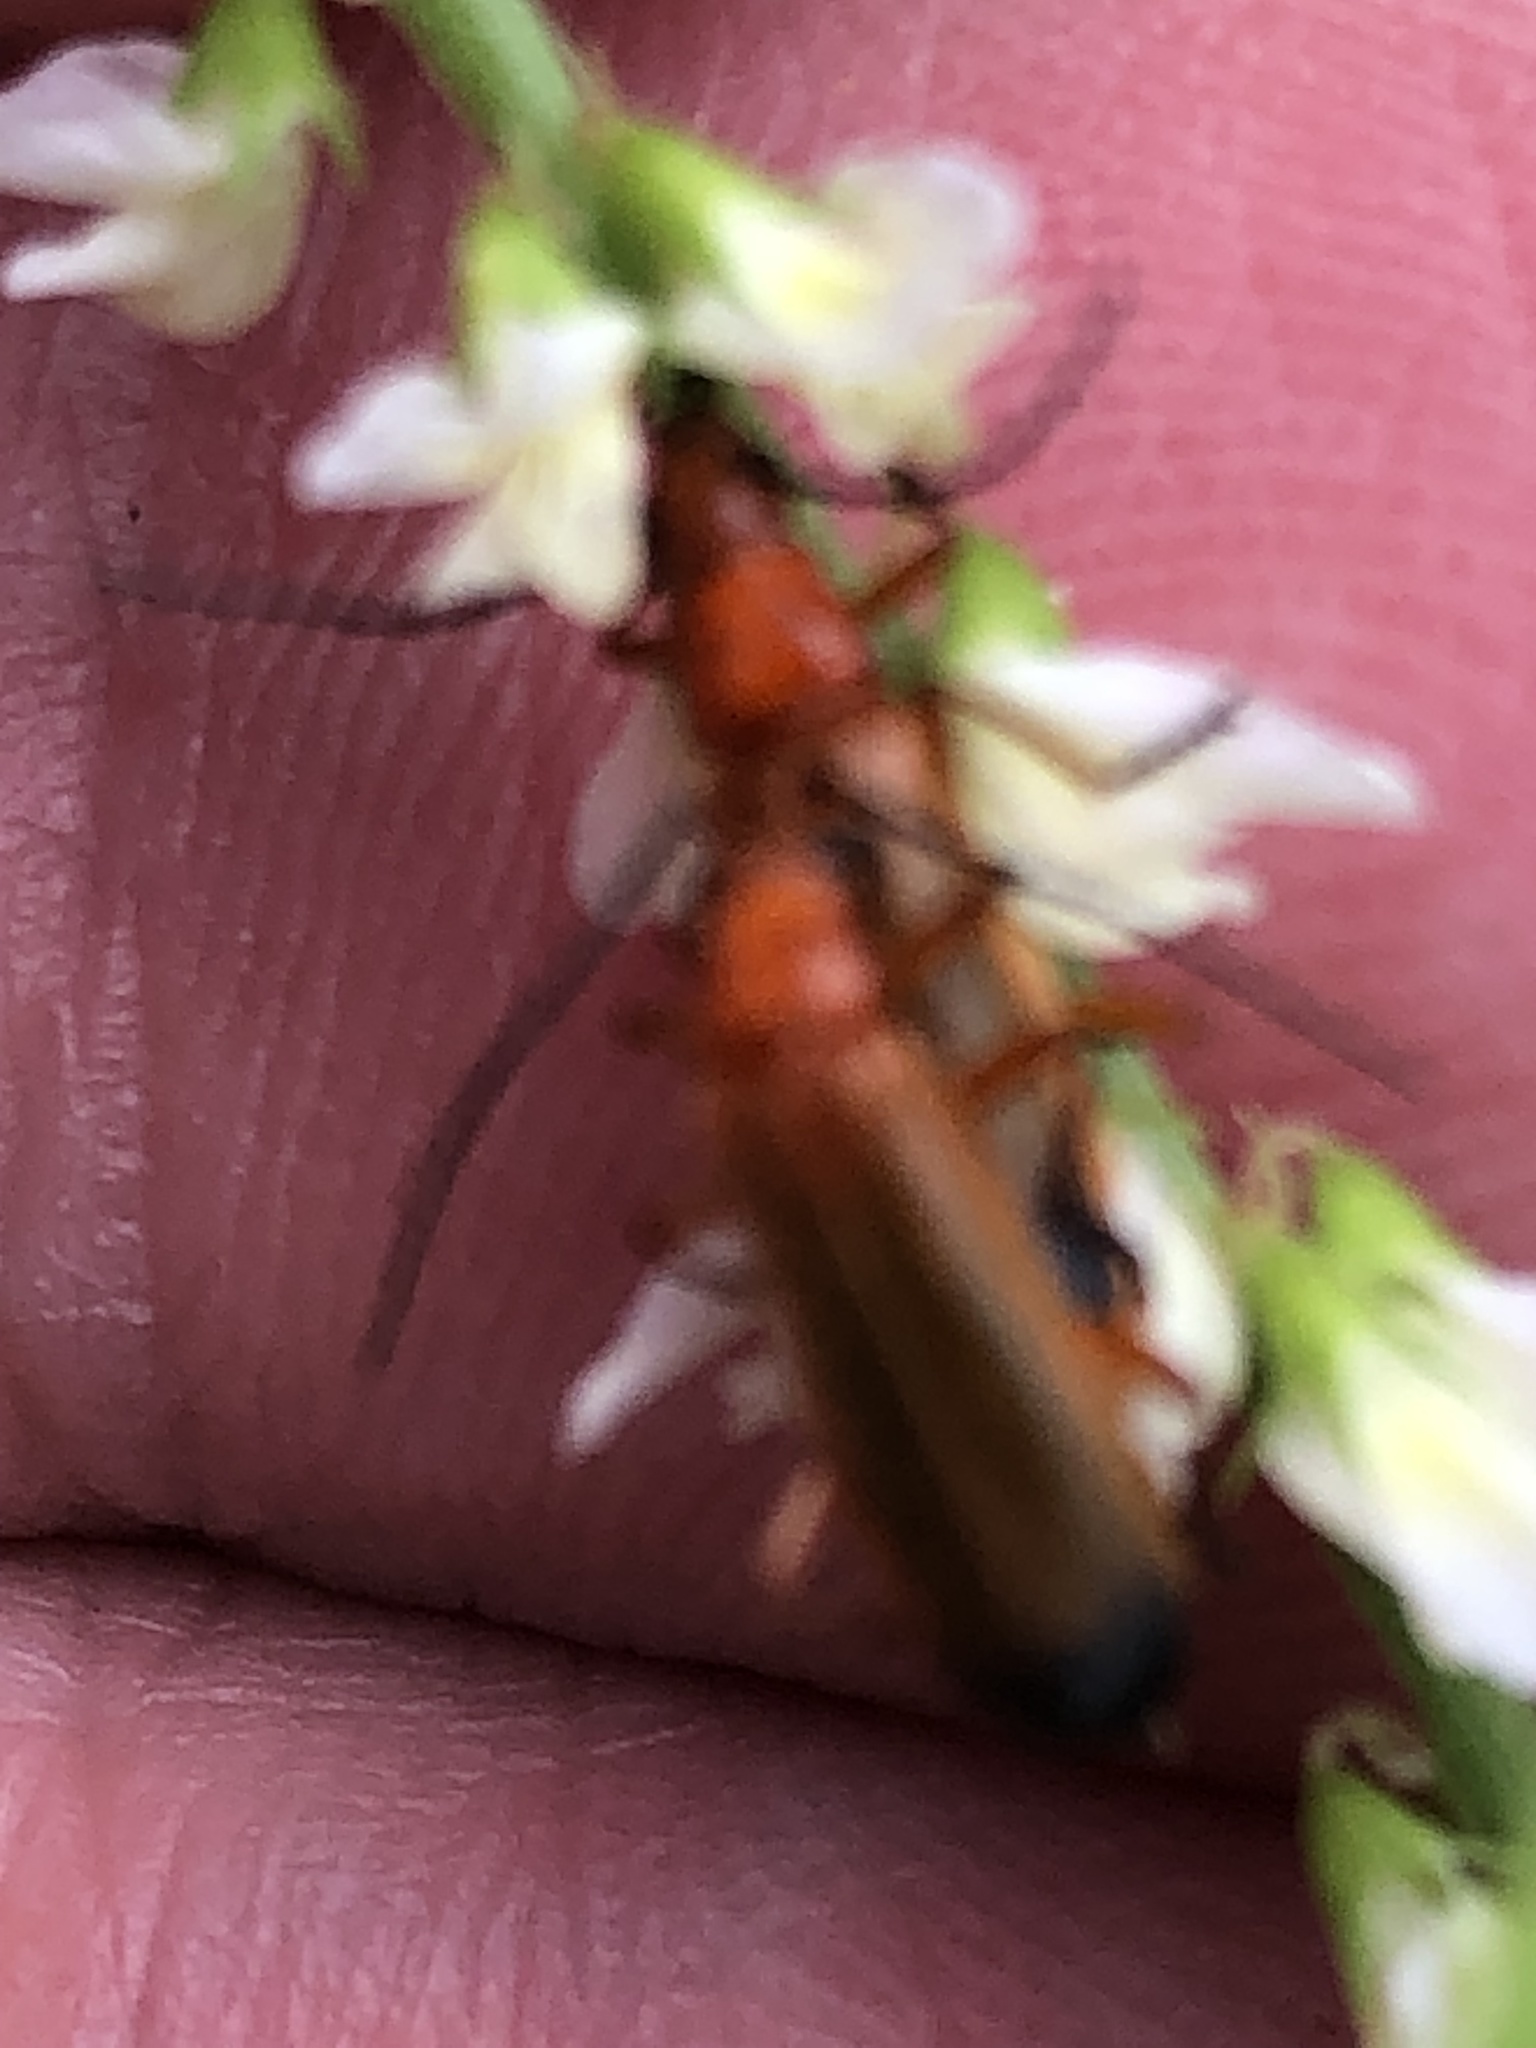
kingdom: Animalia
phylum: Arthropoda
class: Insecta
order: Coleoptera
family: Cantharidae
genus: Rhagonycha
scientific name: Rhagonycha fulva
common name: Common red soldier beetle
